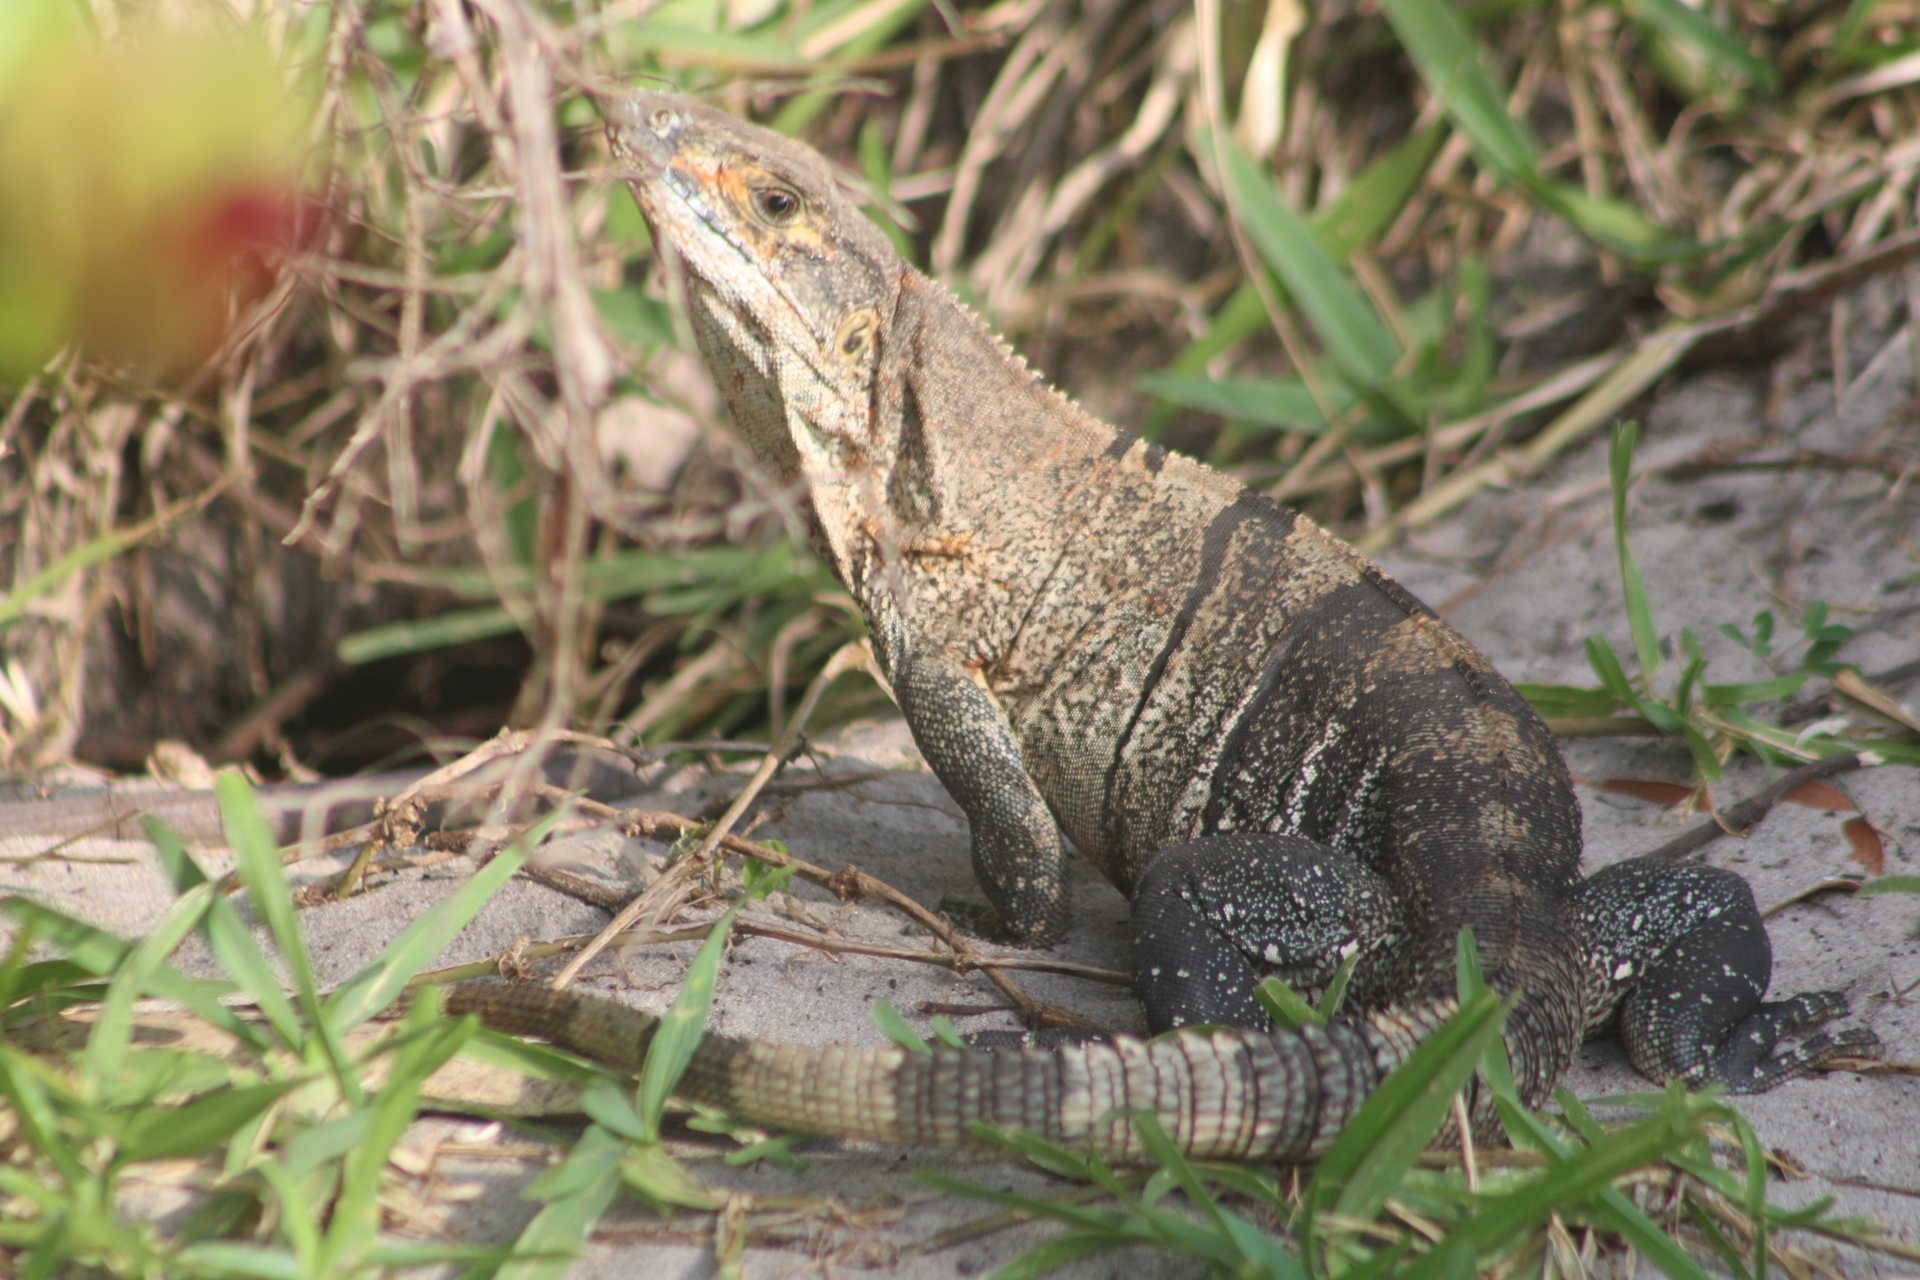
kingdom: Animalia
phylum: Chordata
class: Squamata
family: Iguanidae
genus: Ctenosaura
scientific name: Ctenosaura similis
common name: Black spiny-tailed iguana
